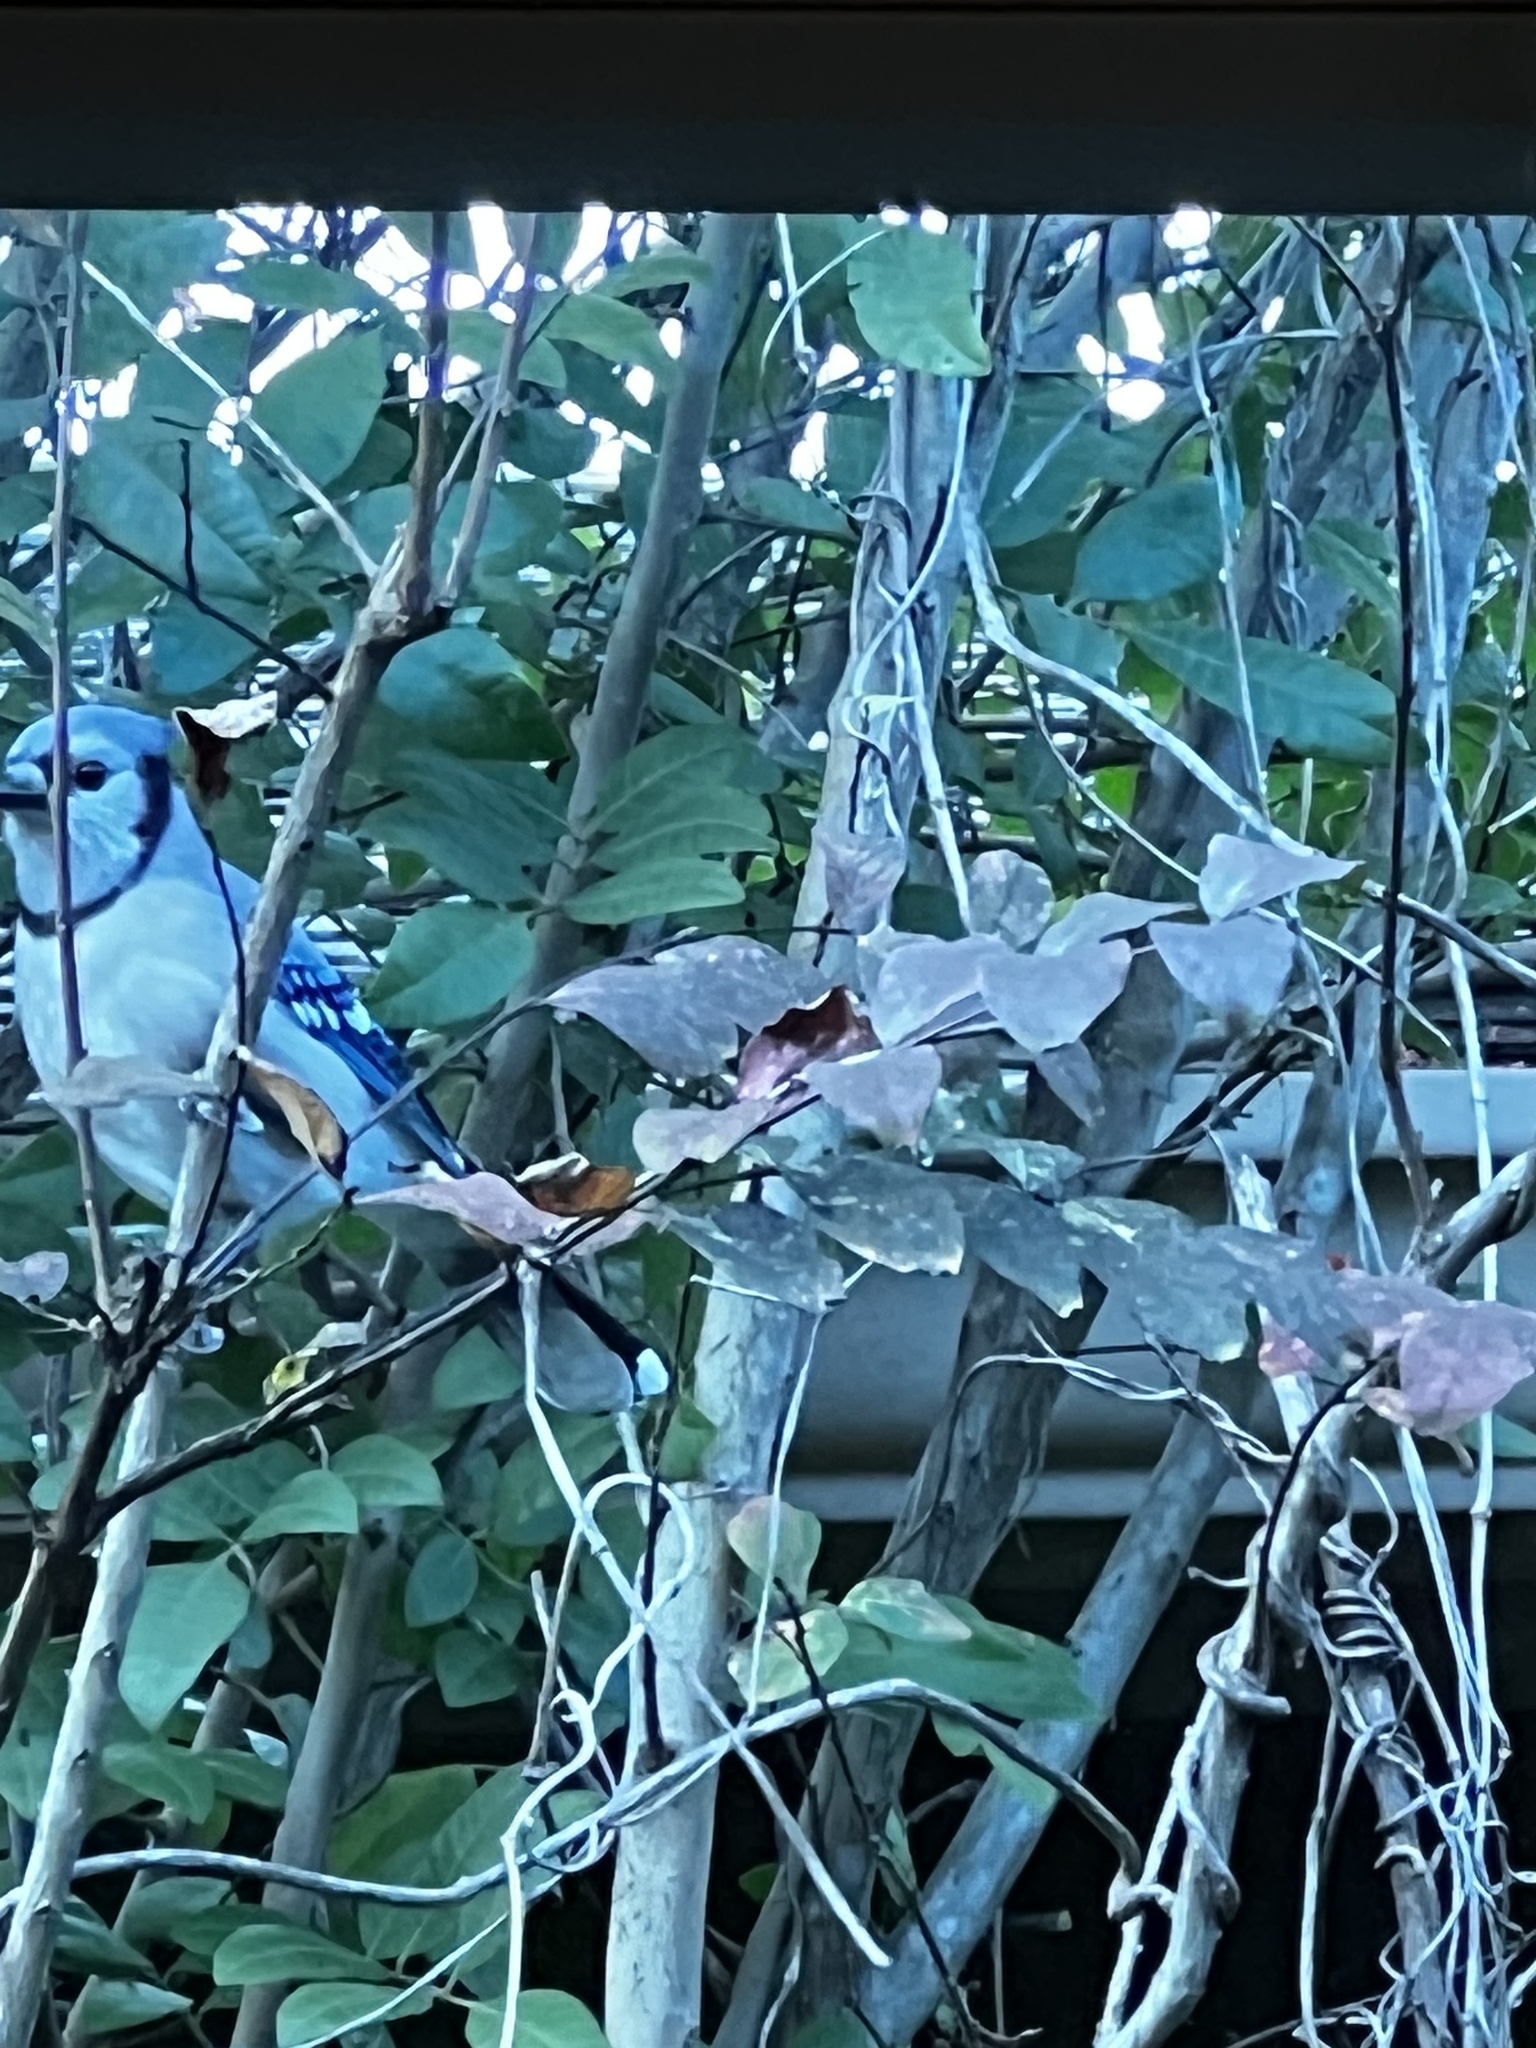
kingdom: Animalia
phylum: Chordata
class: Aves
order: Passeriformes
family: Corvidae
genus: Cyanocitta
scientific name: Cyanocitta cristata
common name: Blue jay
